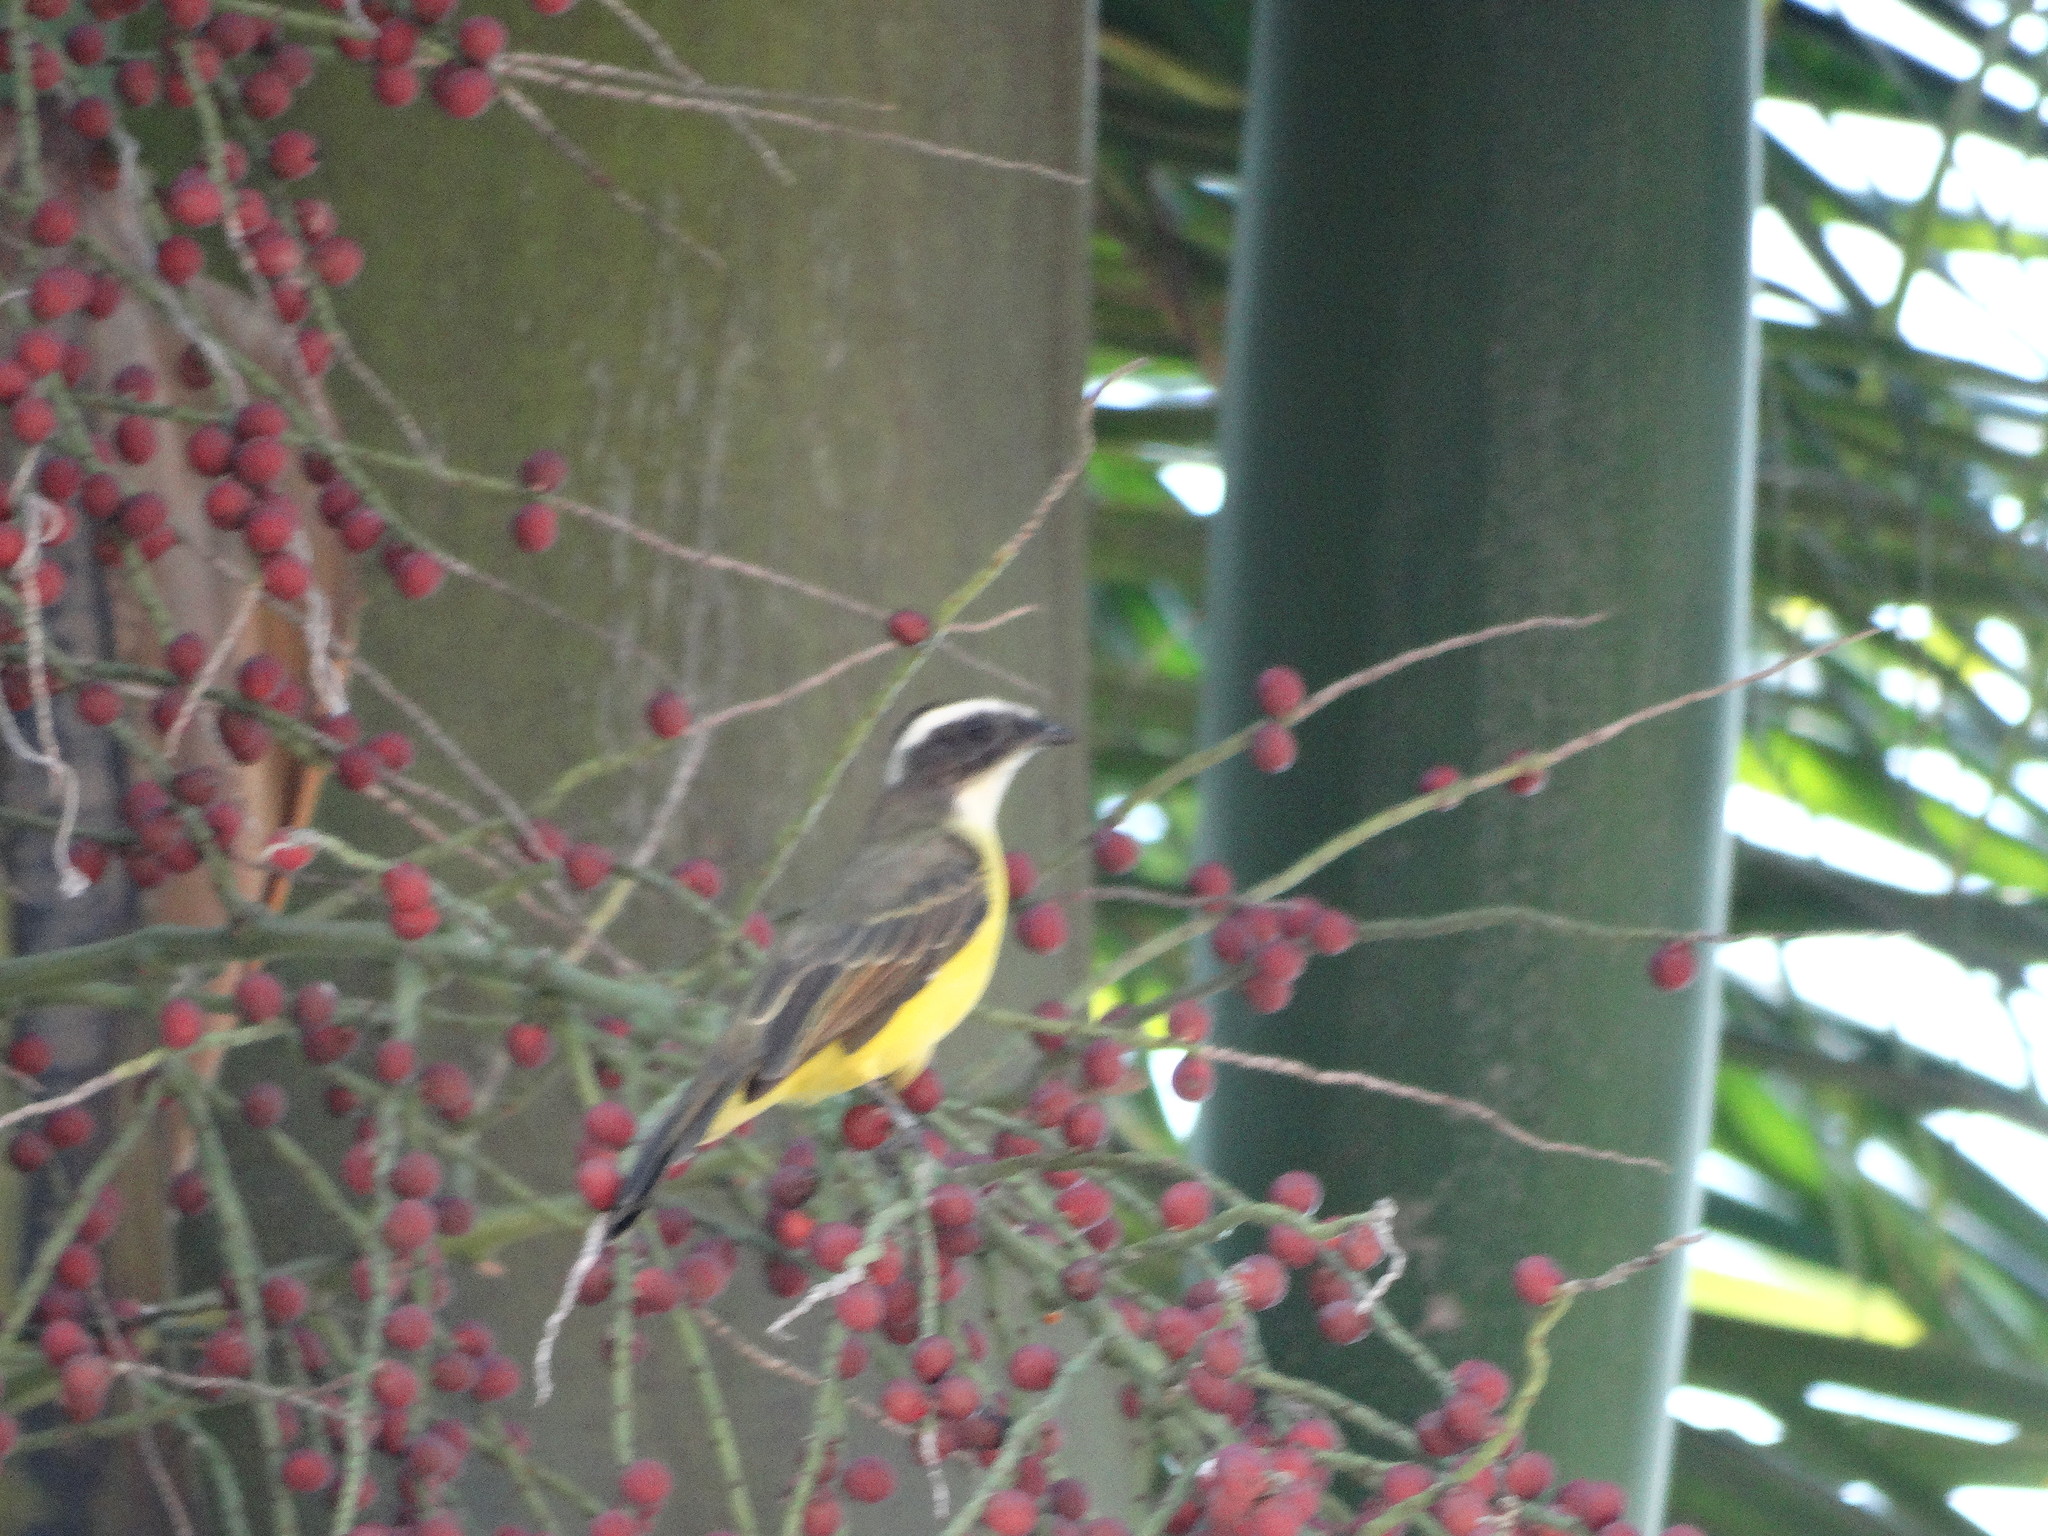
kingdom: Animalia
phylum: Chordata
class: Aves
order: Passeriformes
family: Tyrannidae
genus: Myiozetetes
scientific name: Myiozetetes similis
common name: Social flycatcher
